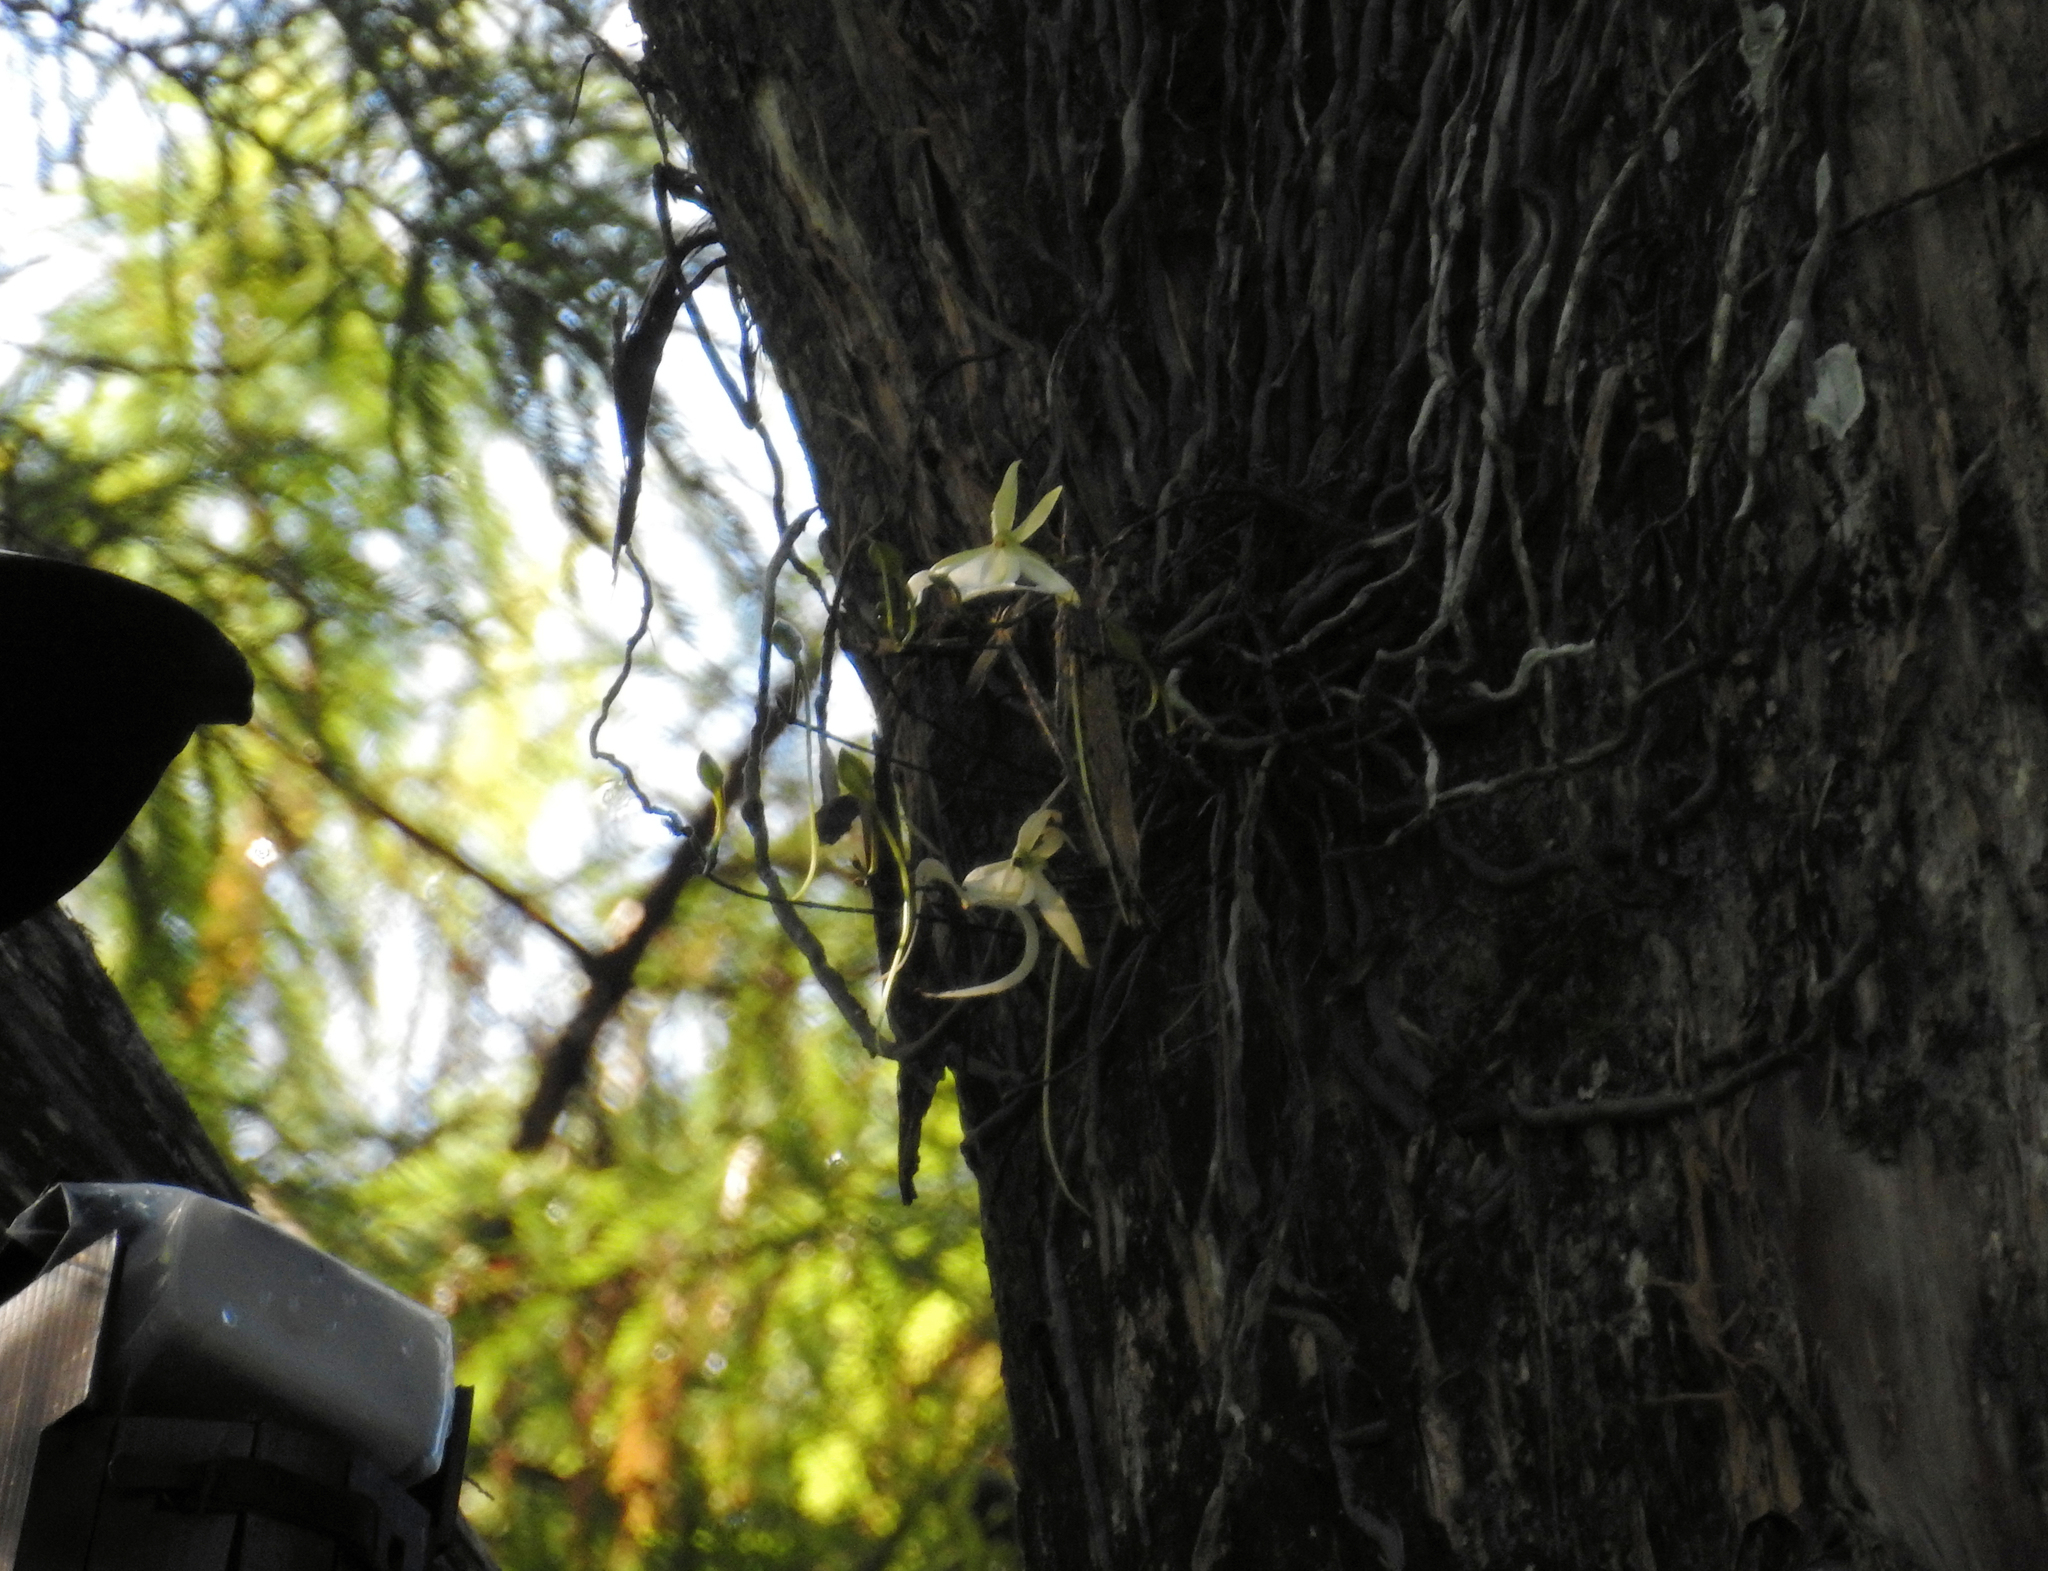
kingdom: Plantae
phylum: Tracheophyta
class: Liliopsida
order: Asparagales
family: Orchidaceae
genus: Dendrophylax
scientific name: Dendrophylax lindenii
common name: Palmpolly
